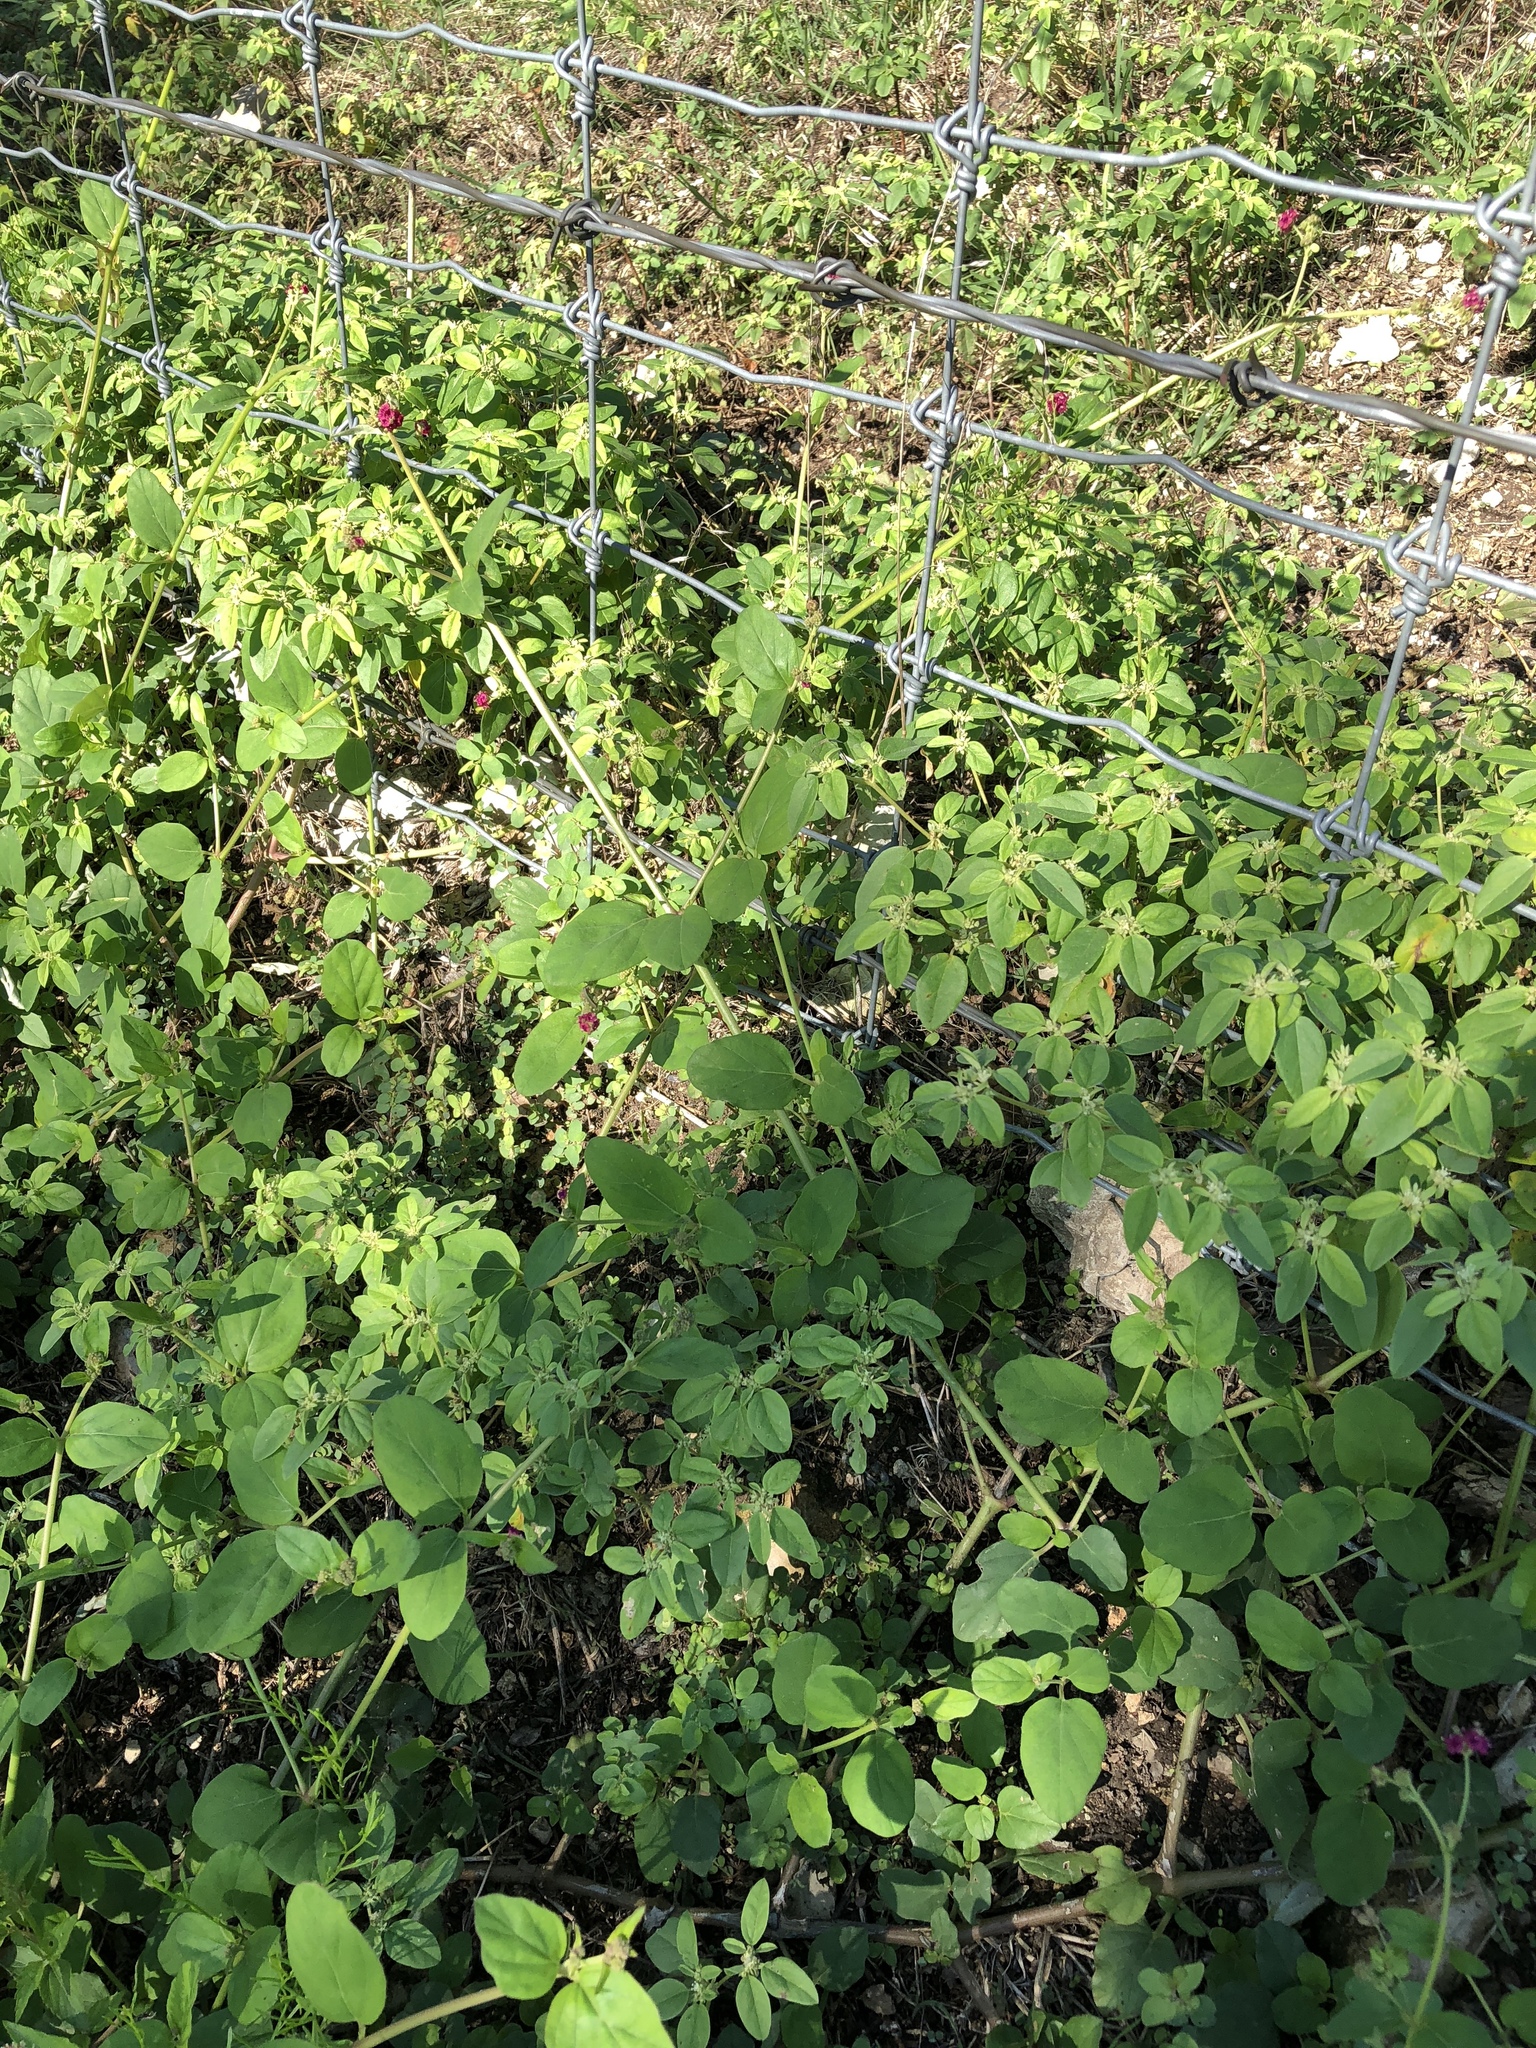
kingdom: Plantae
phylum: Tracheophyta
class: Magnoliopsida
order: Caryophyllales
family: Nyctaginaceae
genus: Boerhavia
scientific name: Boerhavia coccinea
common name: Scarlet spiderling
